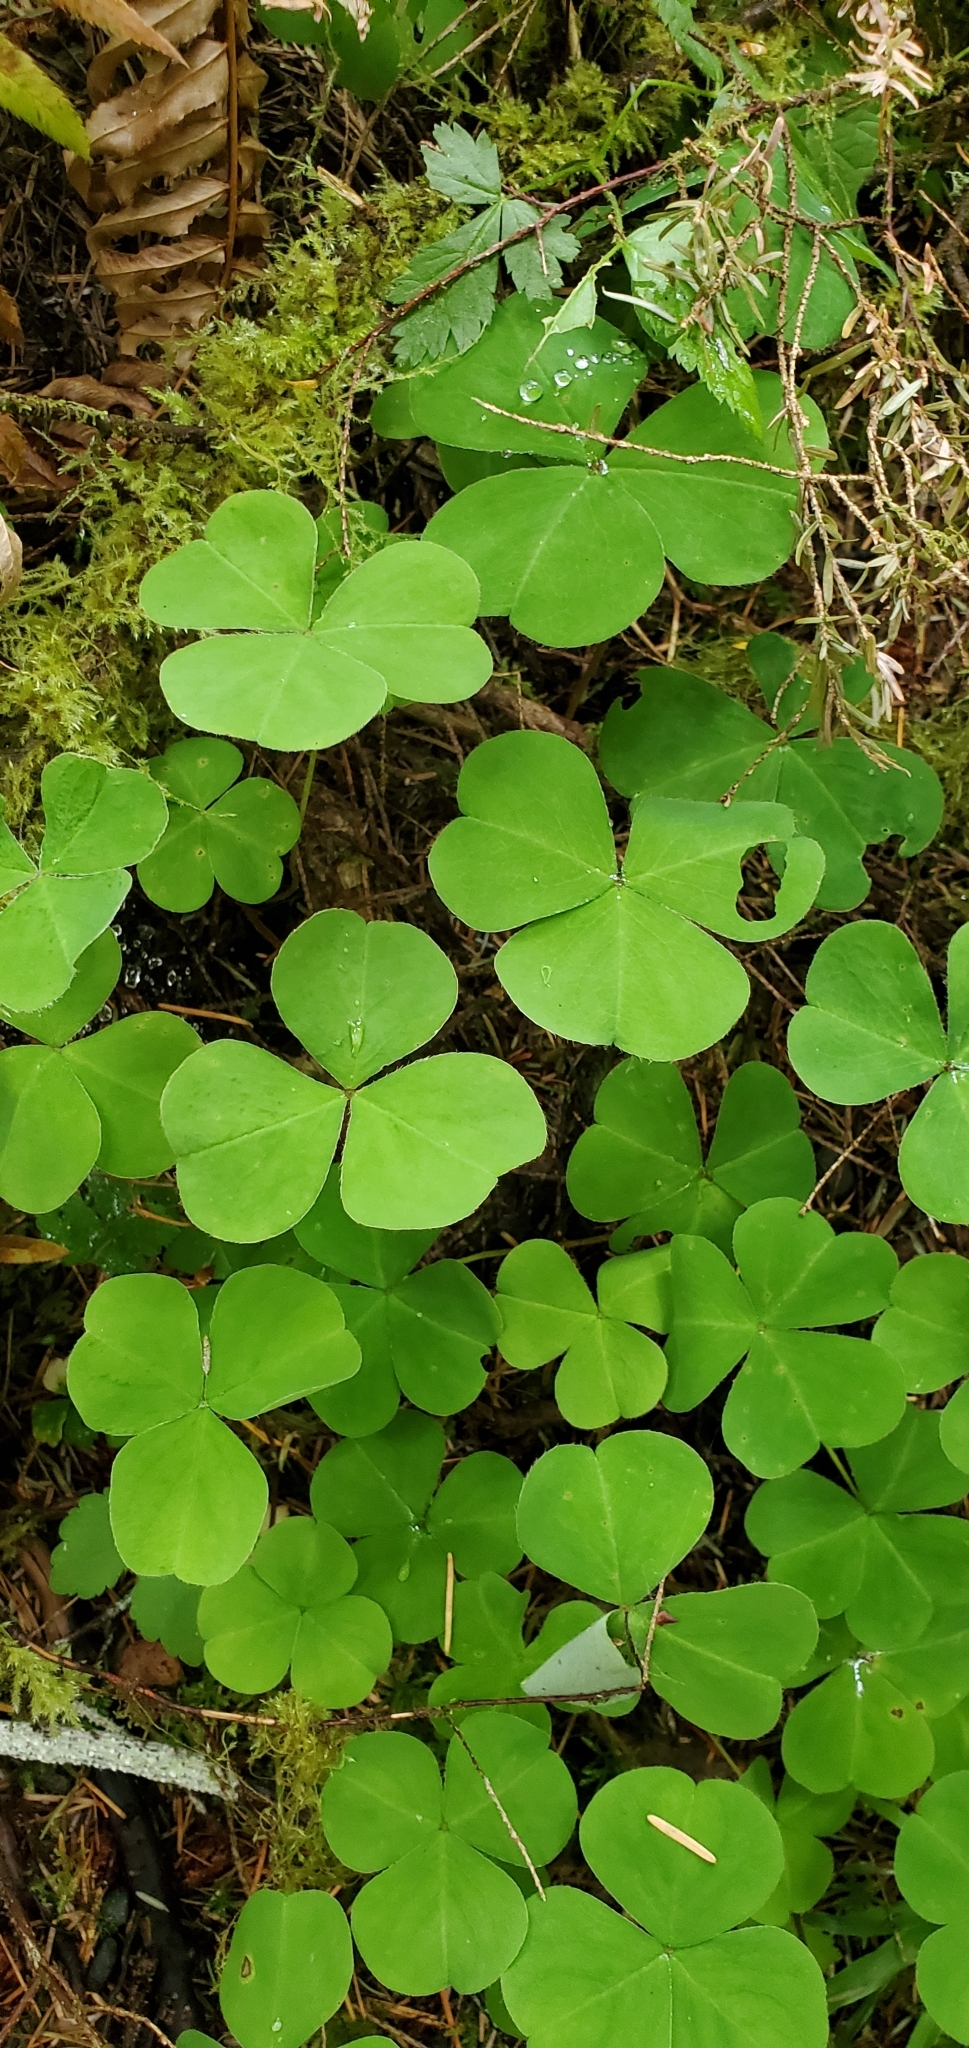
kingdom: Plantae
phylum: Tracheophyta
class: Magnoliopsida
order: Oxalidales
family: Oxalidaceae
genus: Oxalis
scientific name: Oxalis oregana
